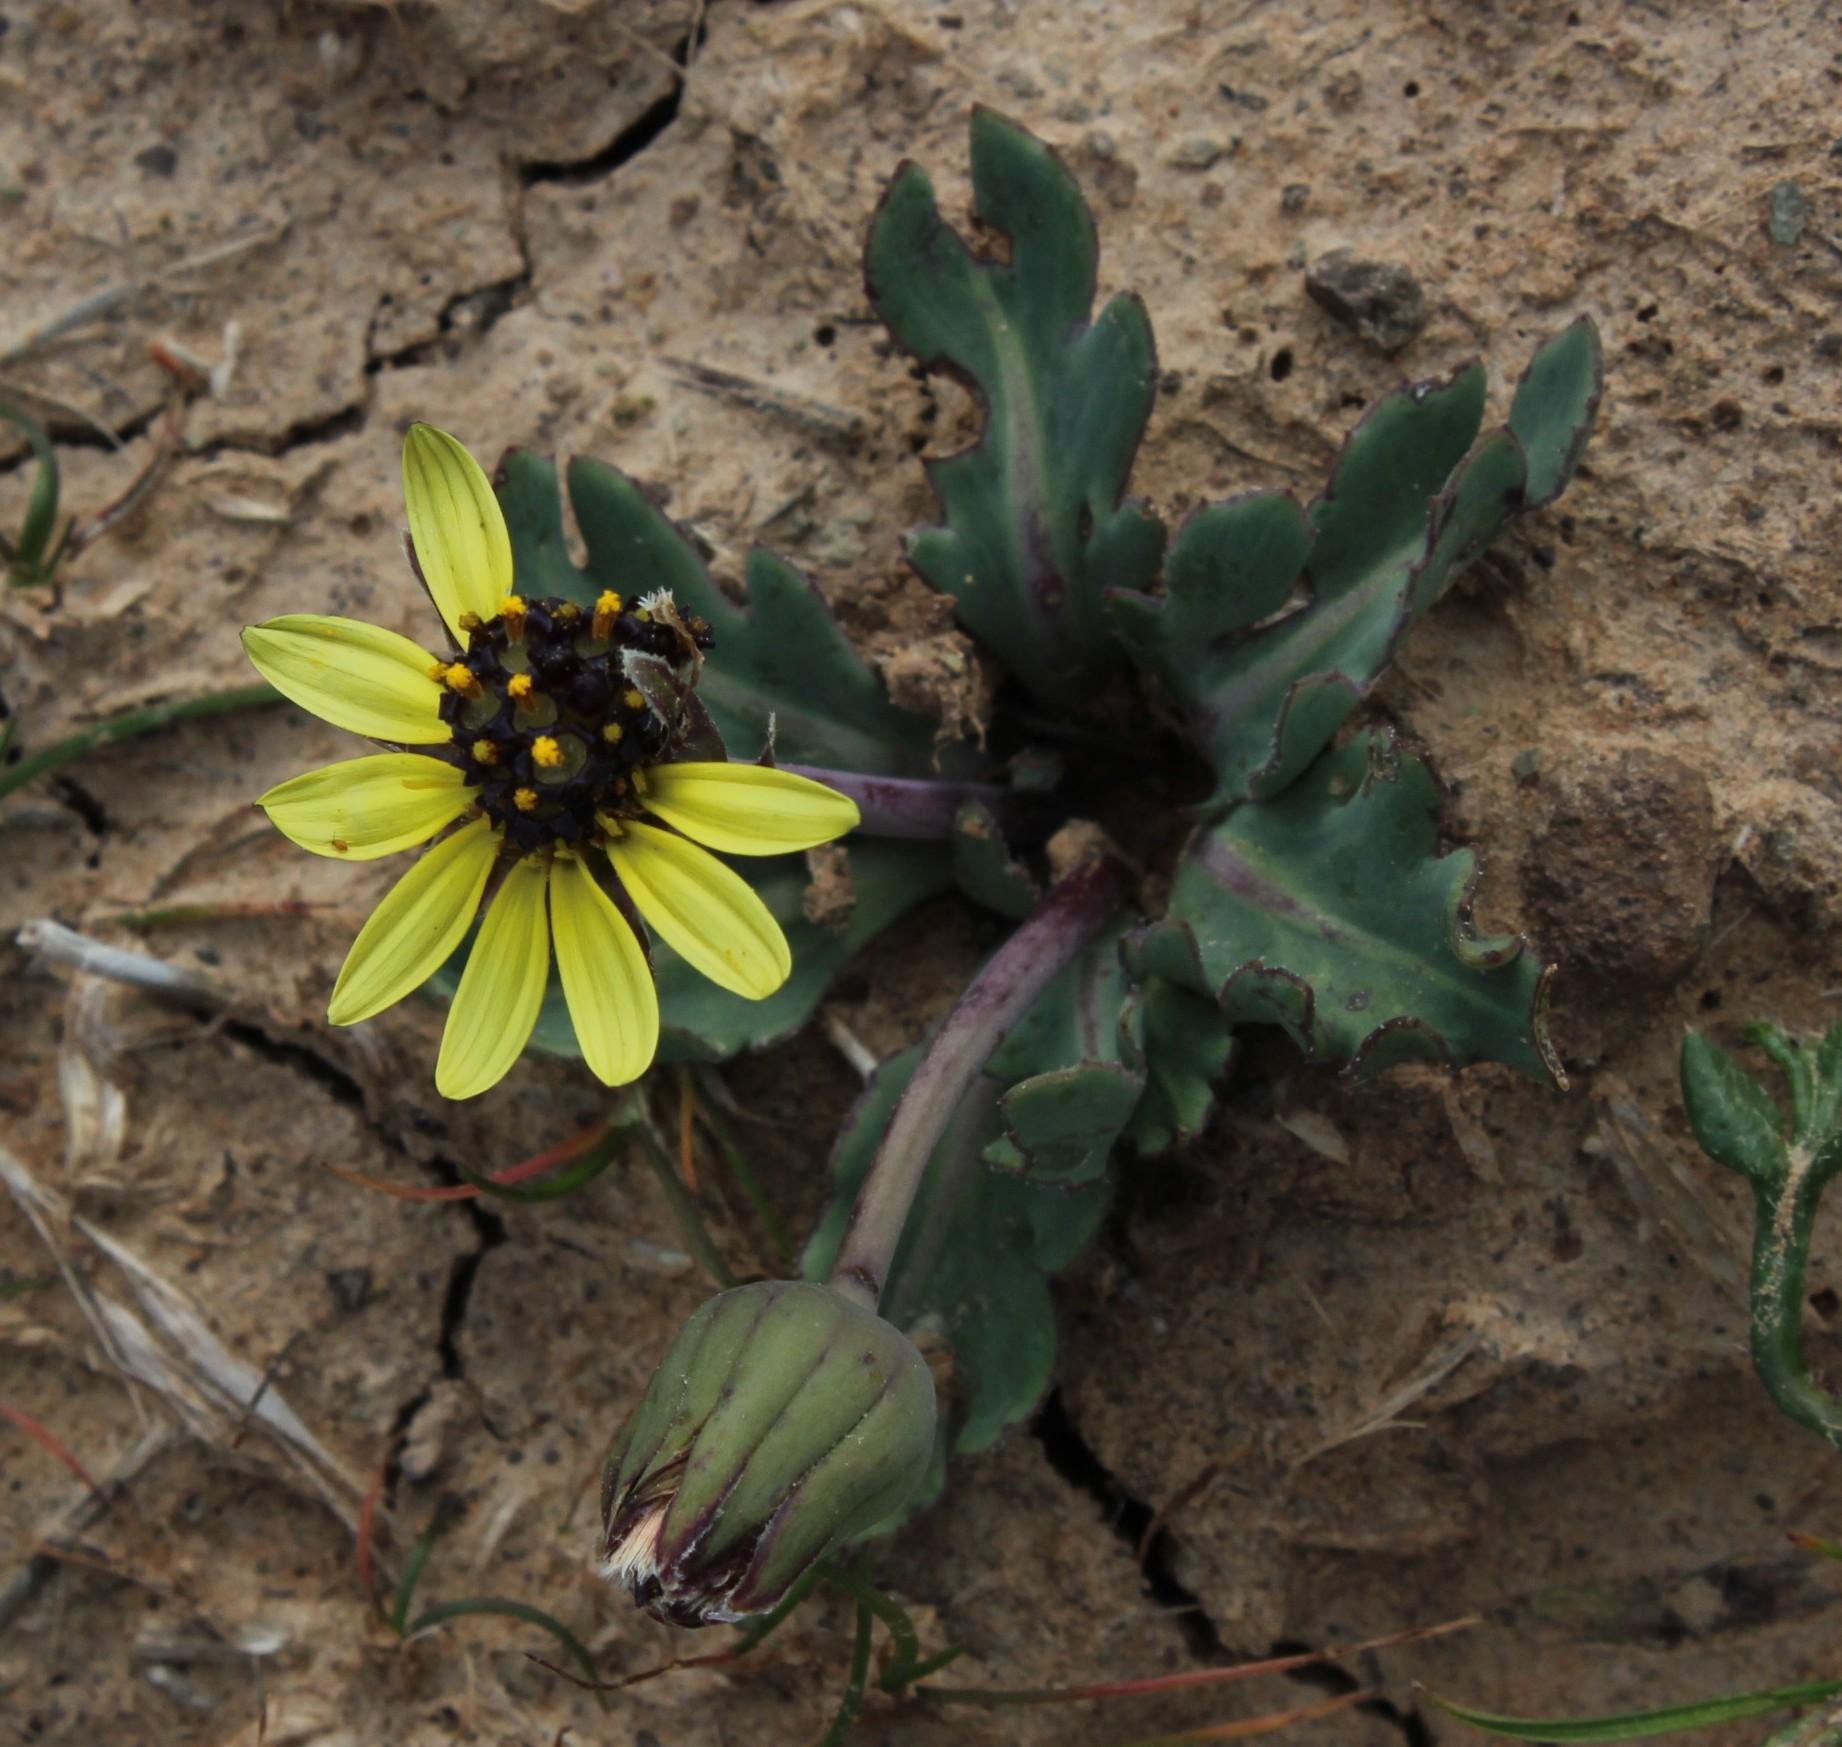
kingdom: Plantae
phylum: Tracheophyta
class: Magnoliopsida
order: Asterales
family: Asteraceae
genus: Othonna
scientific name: Othonna auriculifolia
